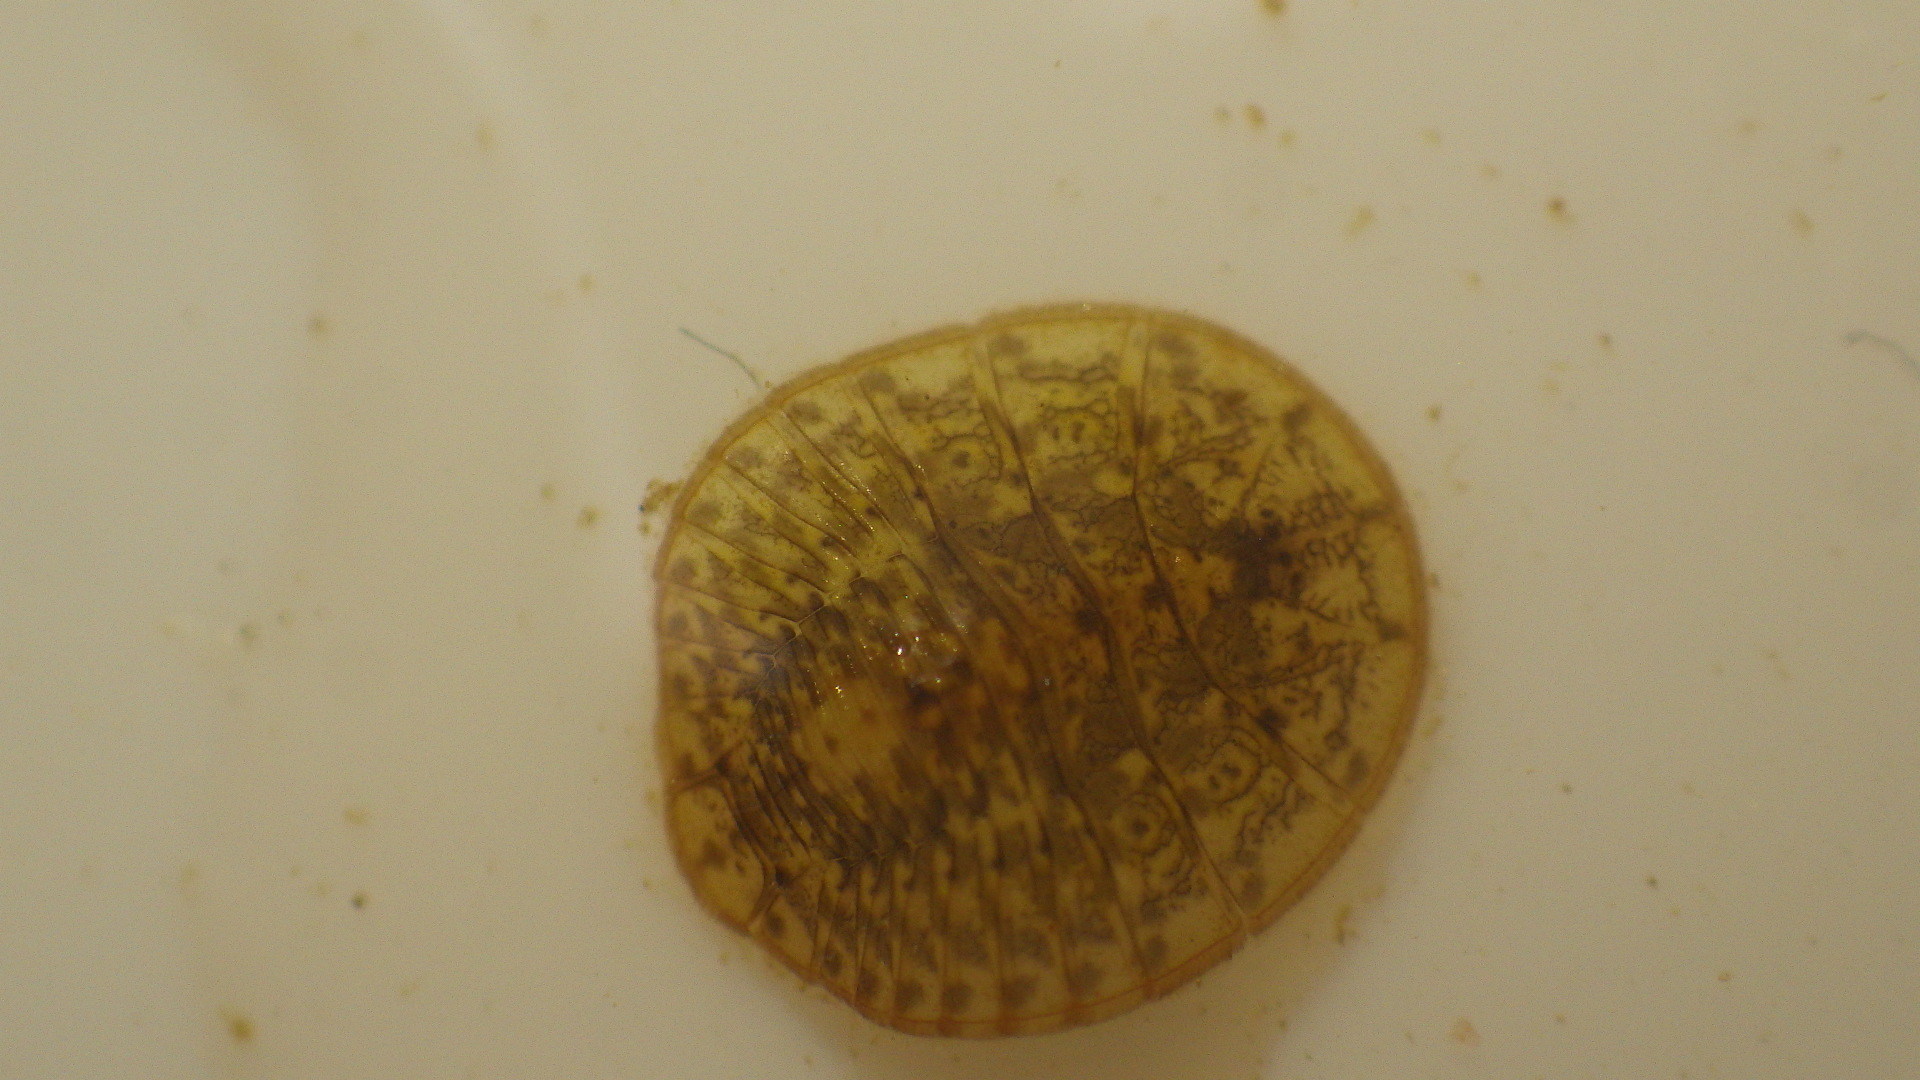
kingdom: Animalia
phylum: Arthropoda
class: Insecta
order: Coleoptera
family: Psephenidae
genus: Psephenus
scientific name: Psephenus herricki
